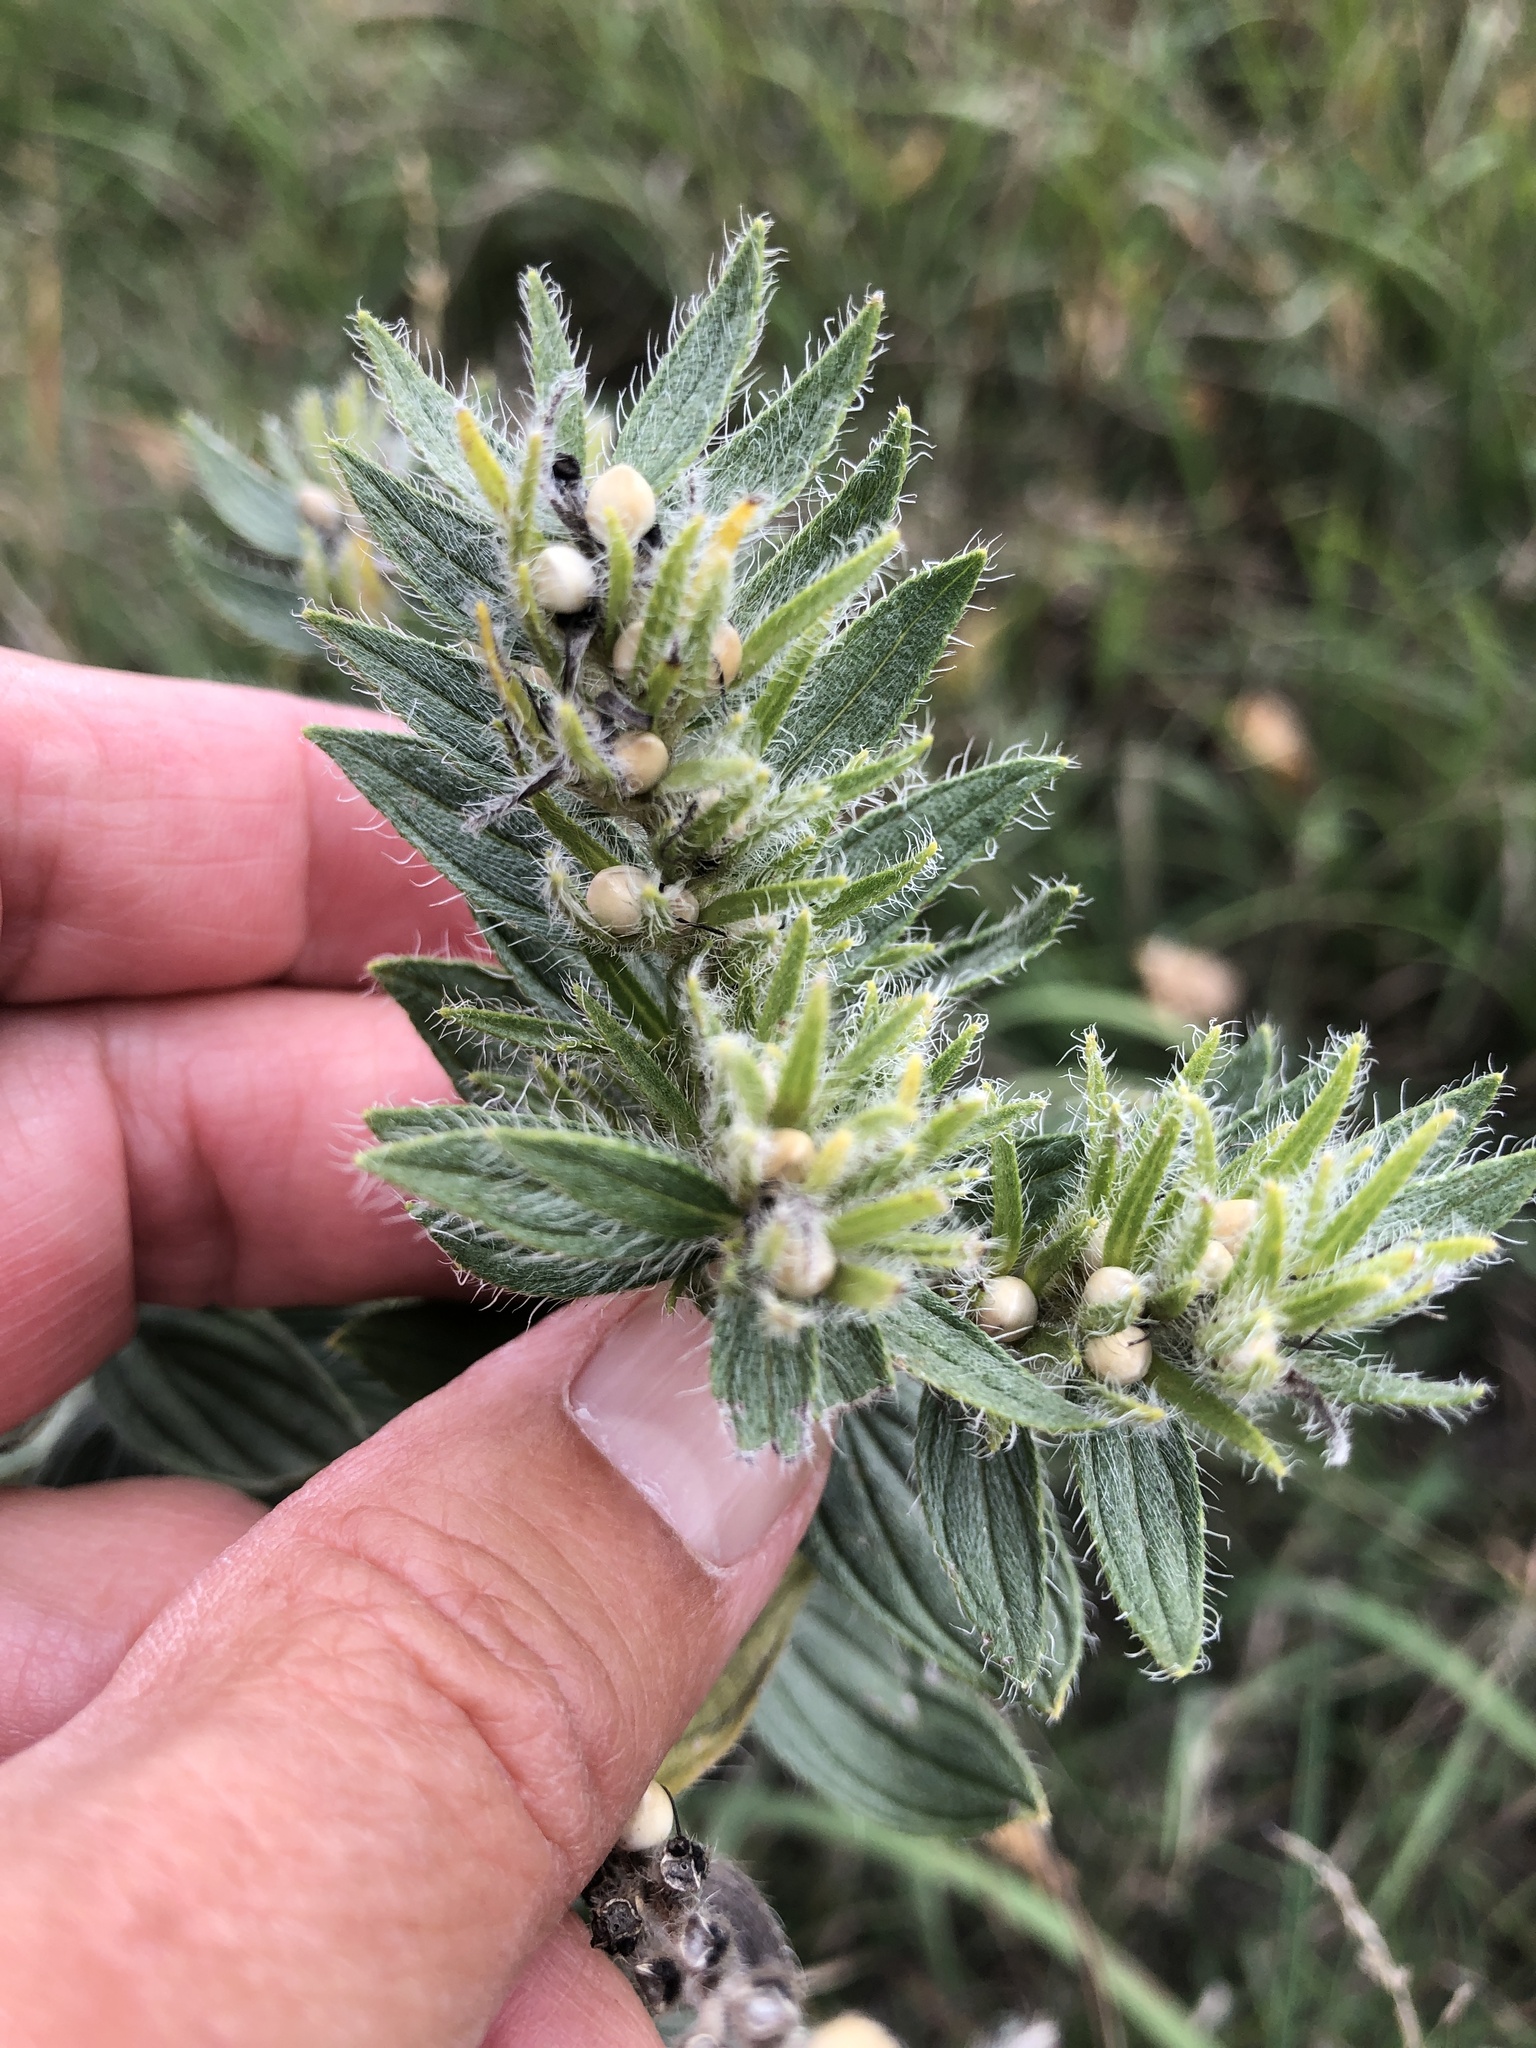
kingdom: Plantae
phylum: Tracheophyta
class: Magnoliopsida
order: Boraginales
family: Boraginaceae
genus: Lithospermum
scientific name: Lithospermum occidentale
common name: Western false gromwell
